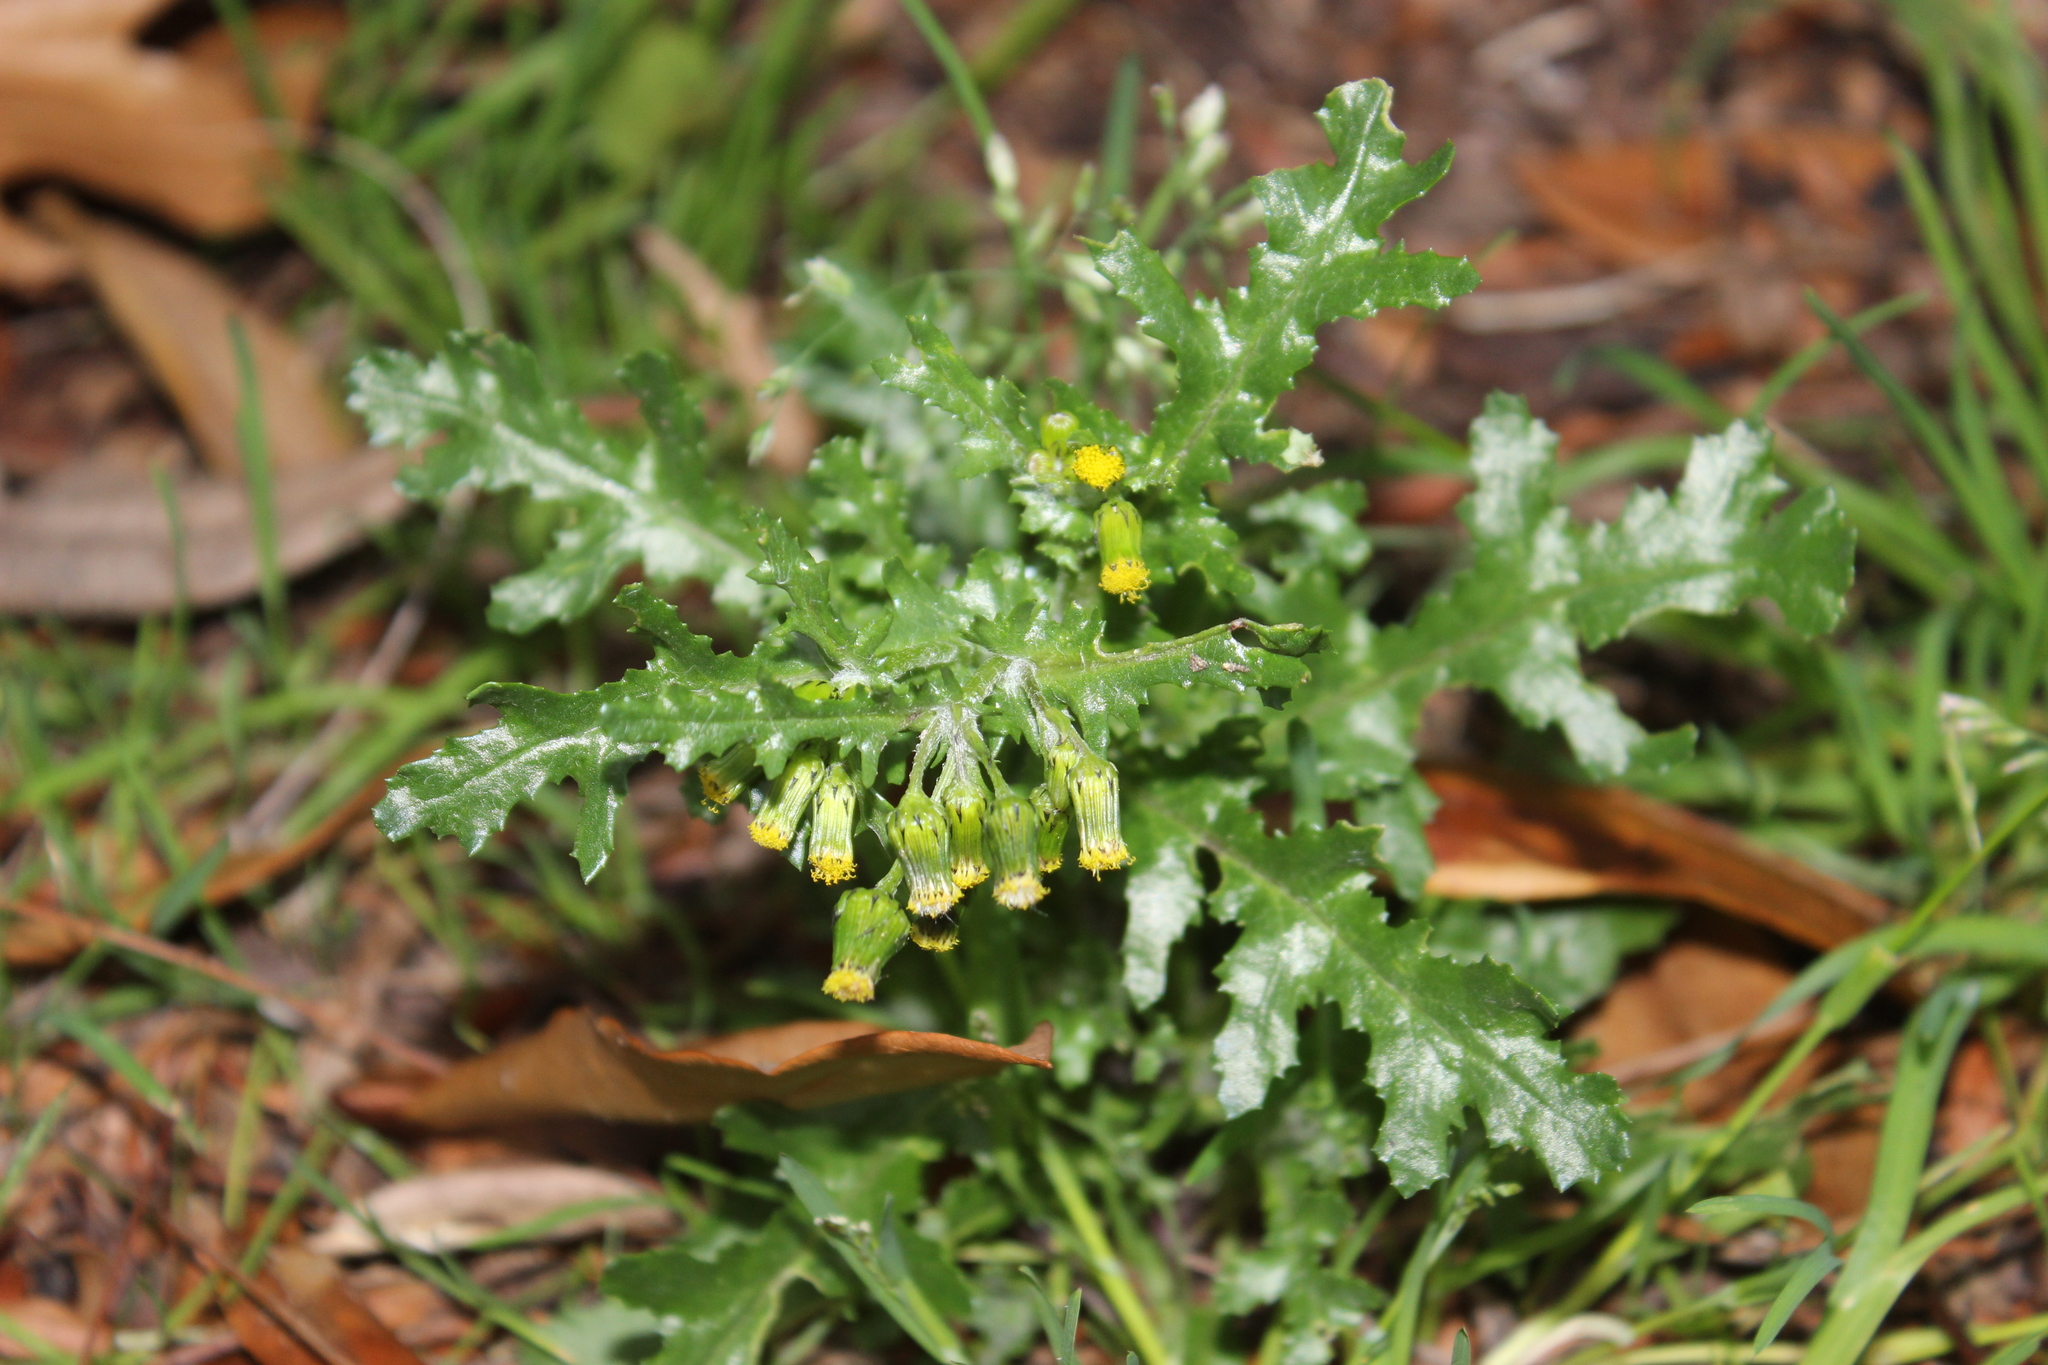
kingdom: Plantae
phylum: Tracheophyta
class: Magnoliopsida
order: Asterales
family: Asteraceae
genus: Senecio
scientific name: Senecio vulgaris
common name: Old-man-in-the-spring
